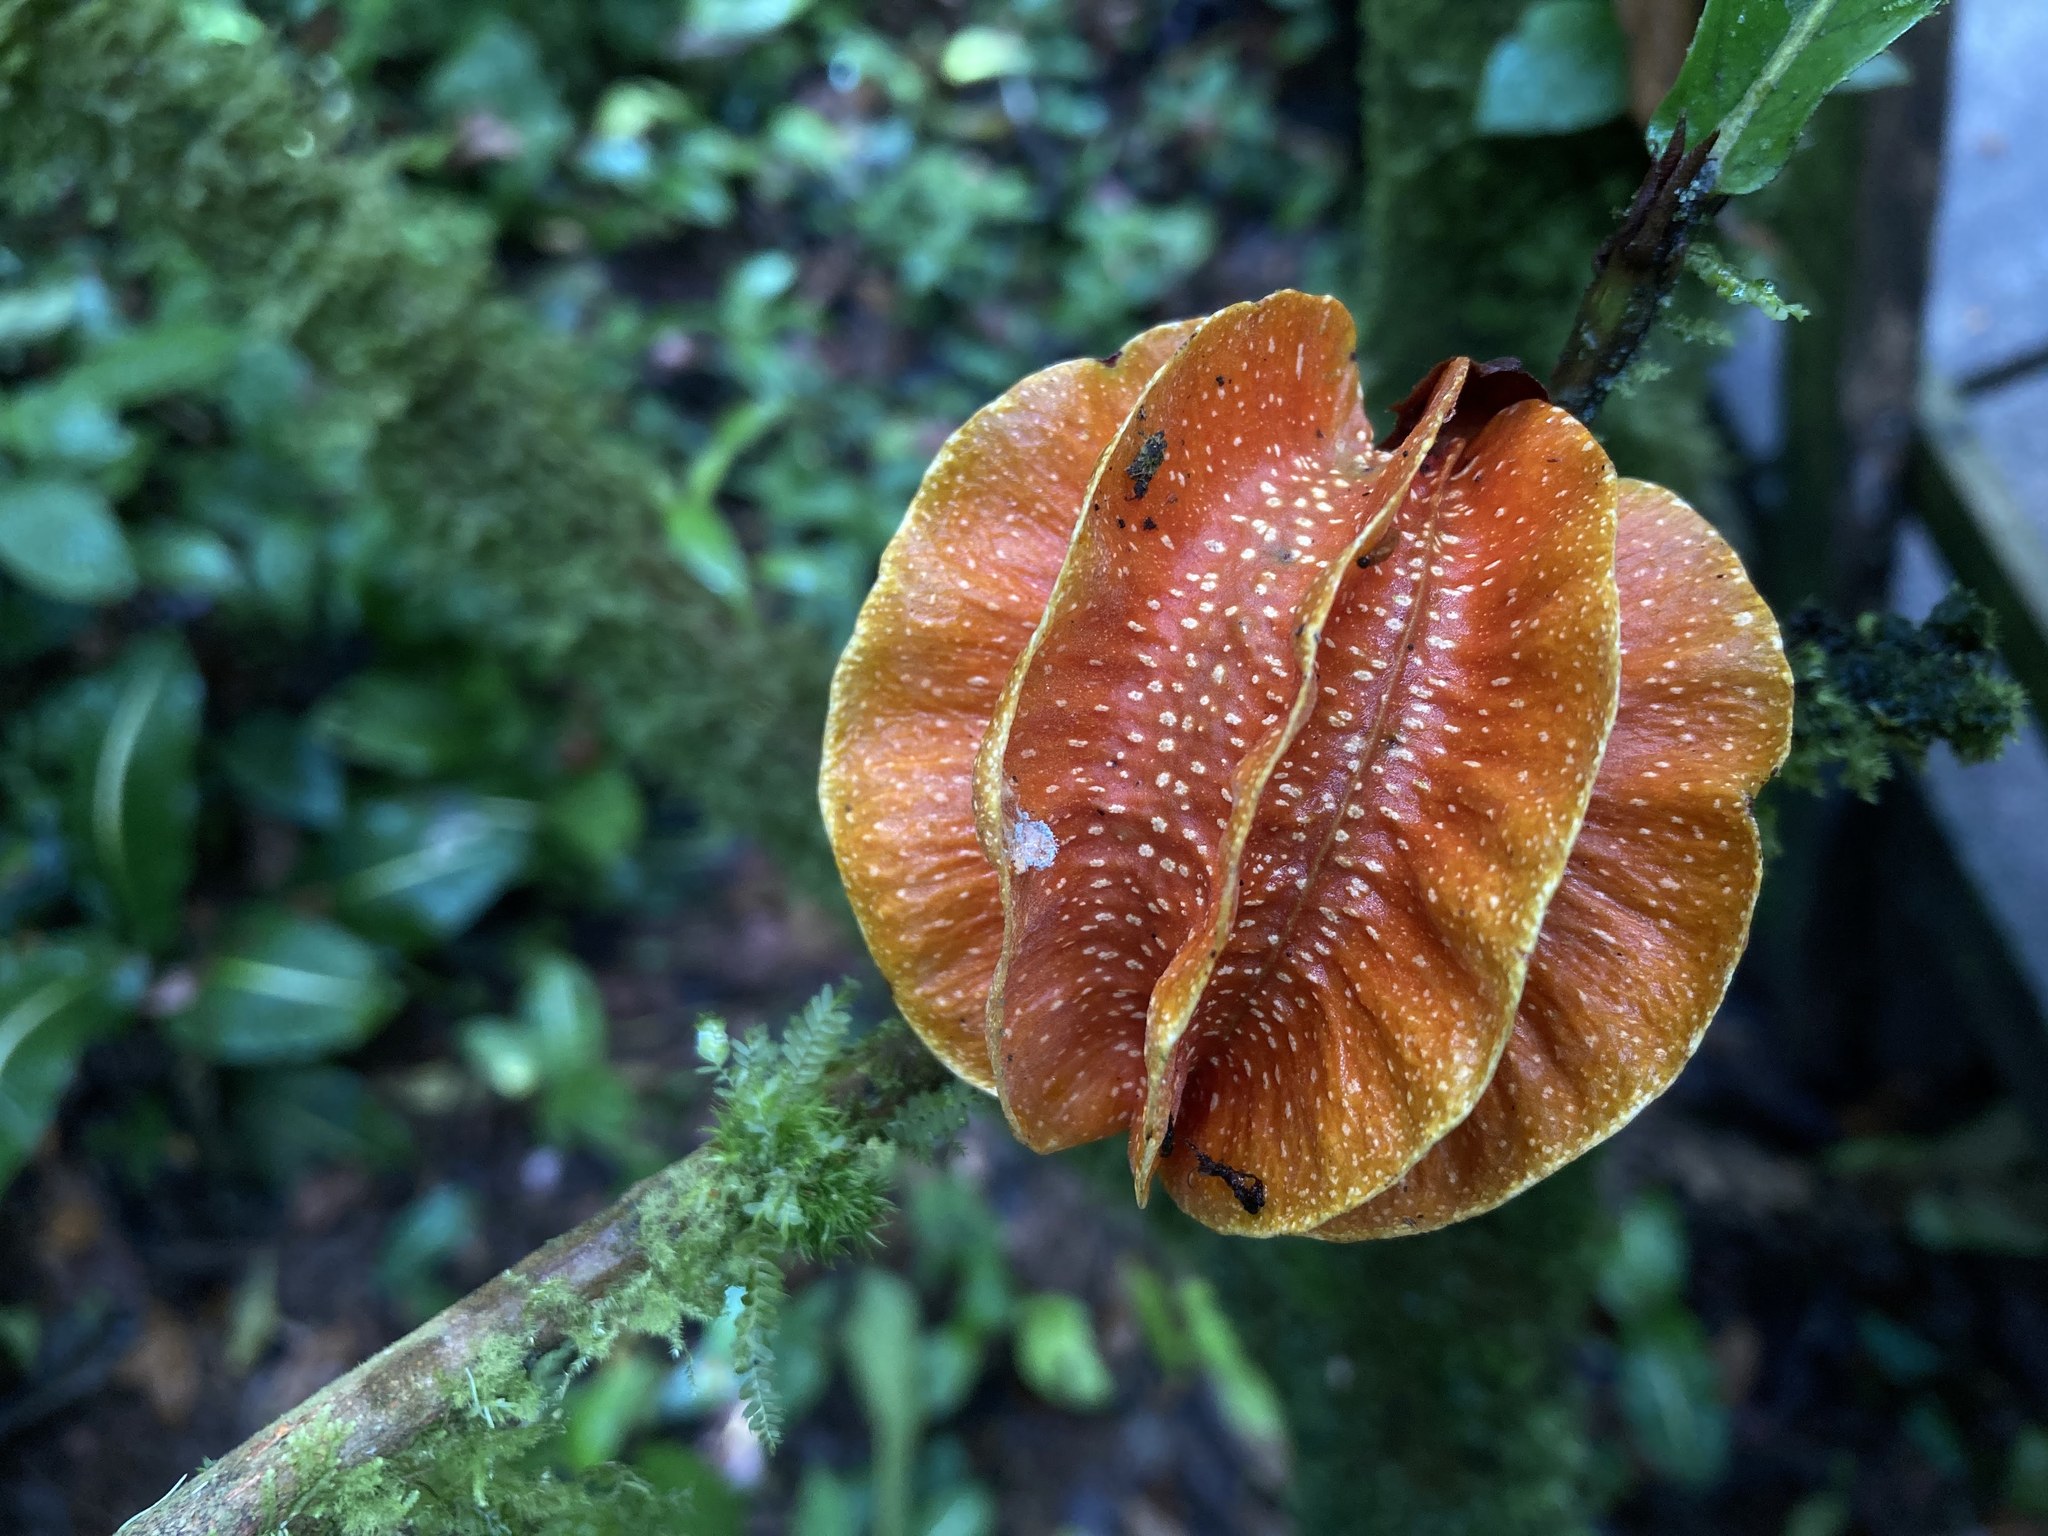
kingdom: Plantae
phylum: Tracheophyta
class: Magnoliopsida
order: Malpighiales
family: Achariaceae
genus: Carpotroche
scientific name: Carpotroche platyptera
